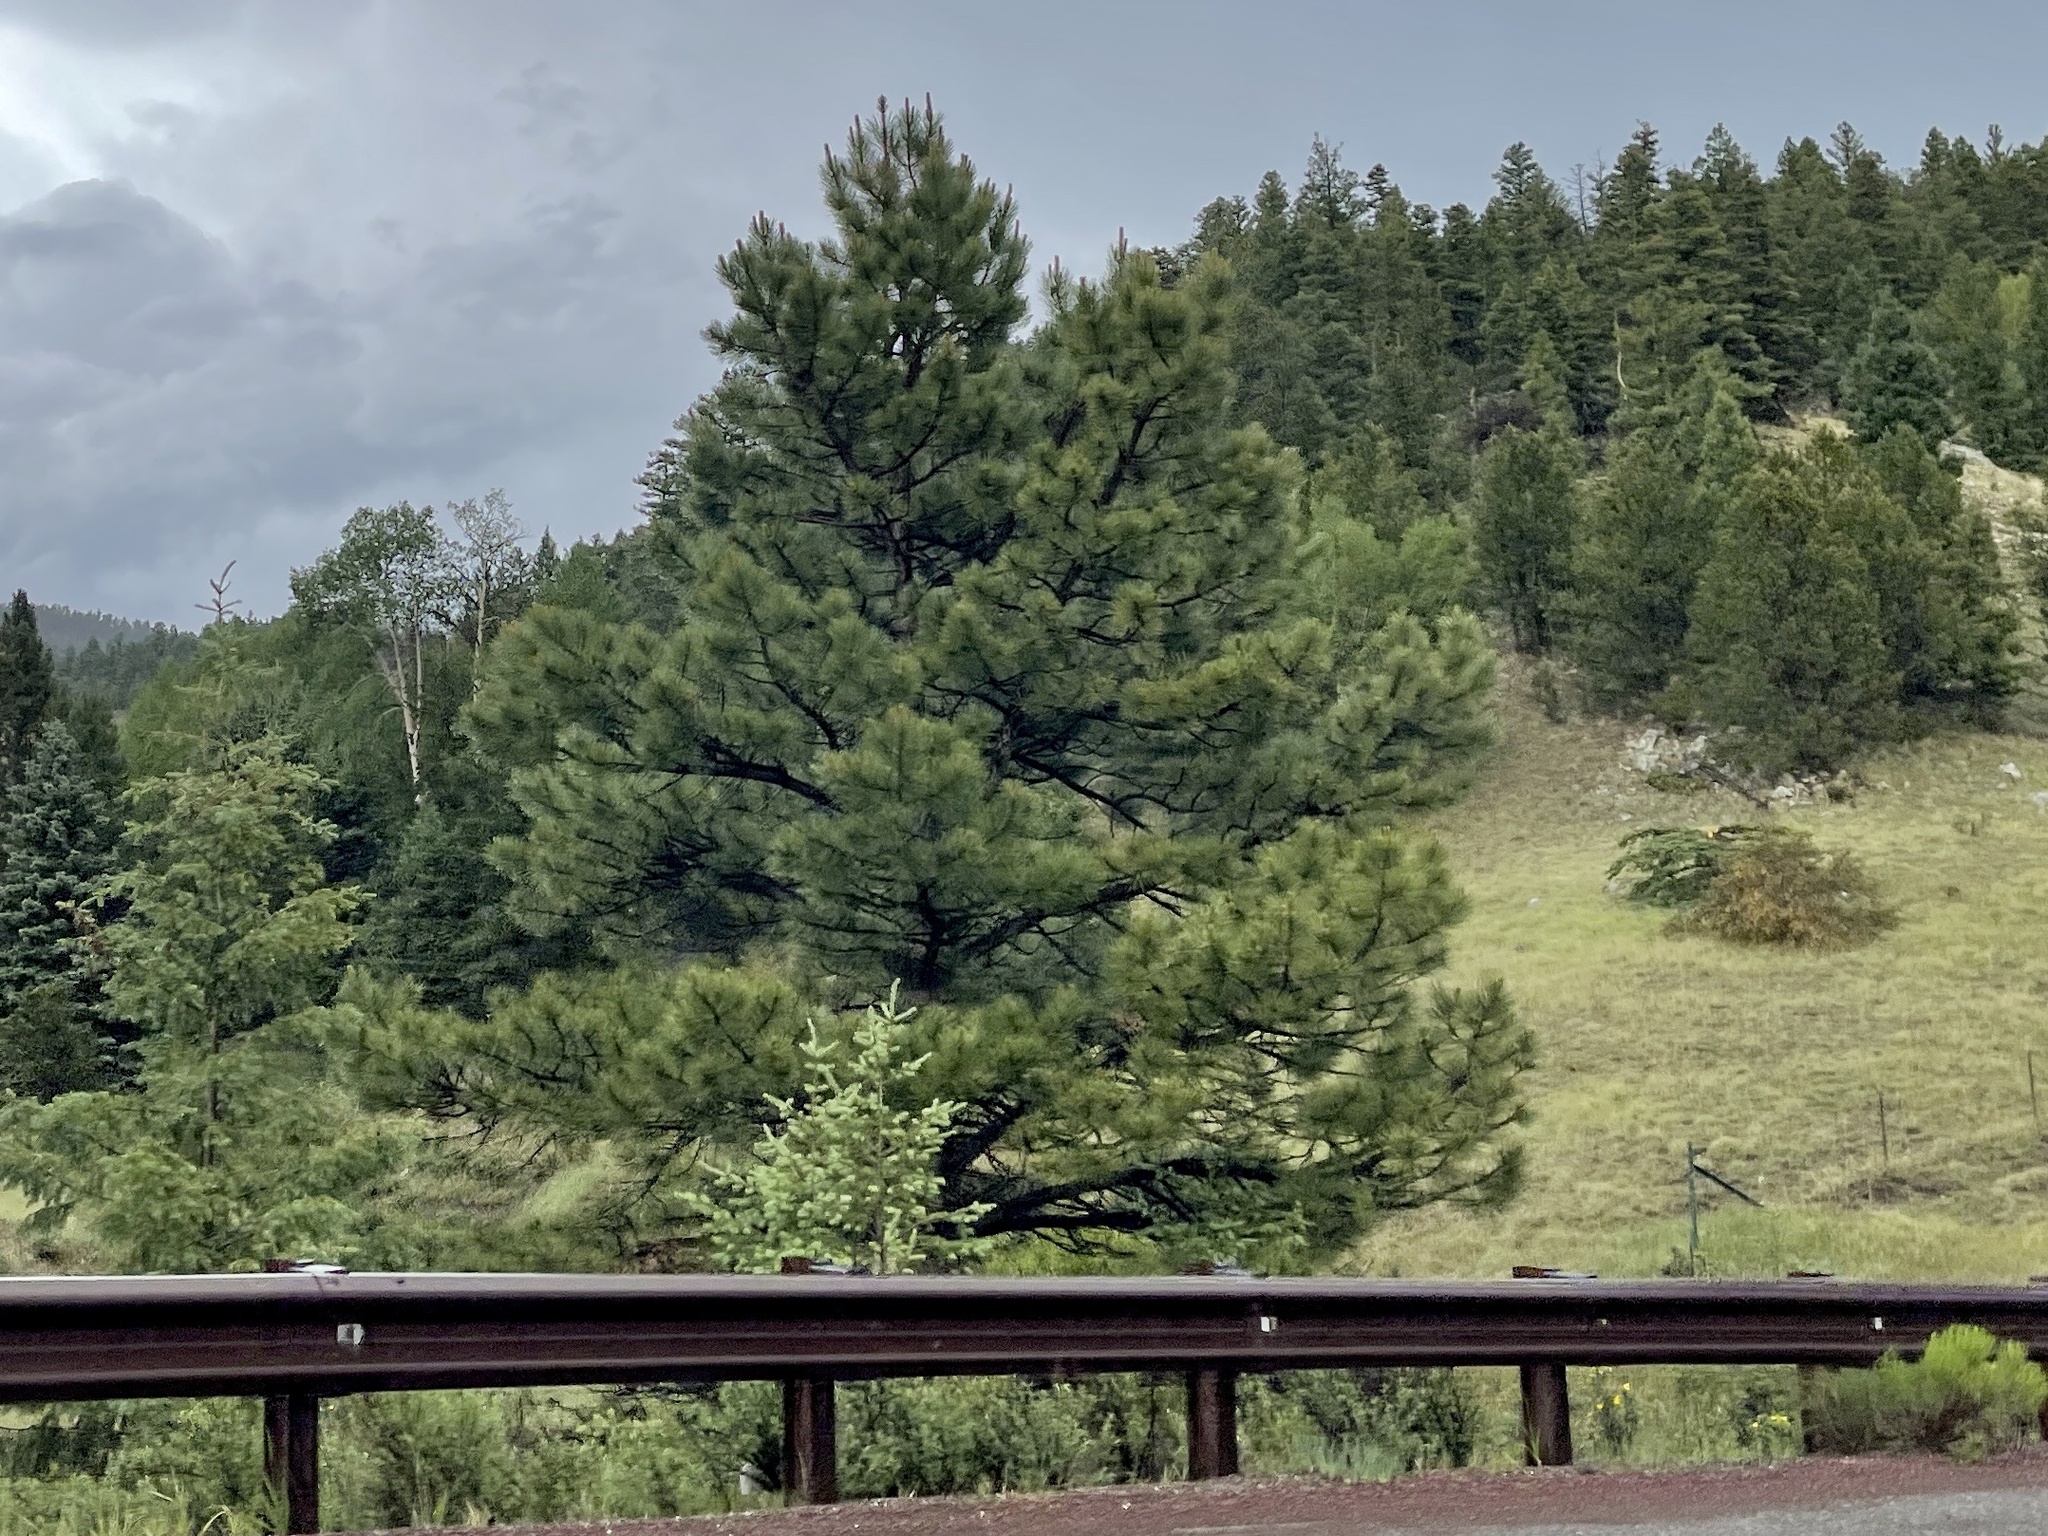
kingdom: Plantae
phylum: Tracheophyta
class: Pinopsida
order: Pinales
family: Pinaceae
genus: Pinus
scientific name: Pinus ponderosa
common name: Western yellow-pine
